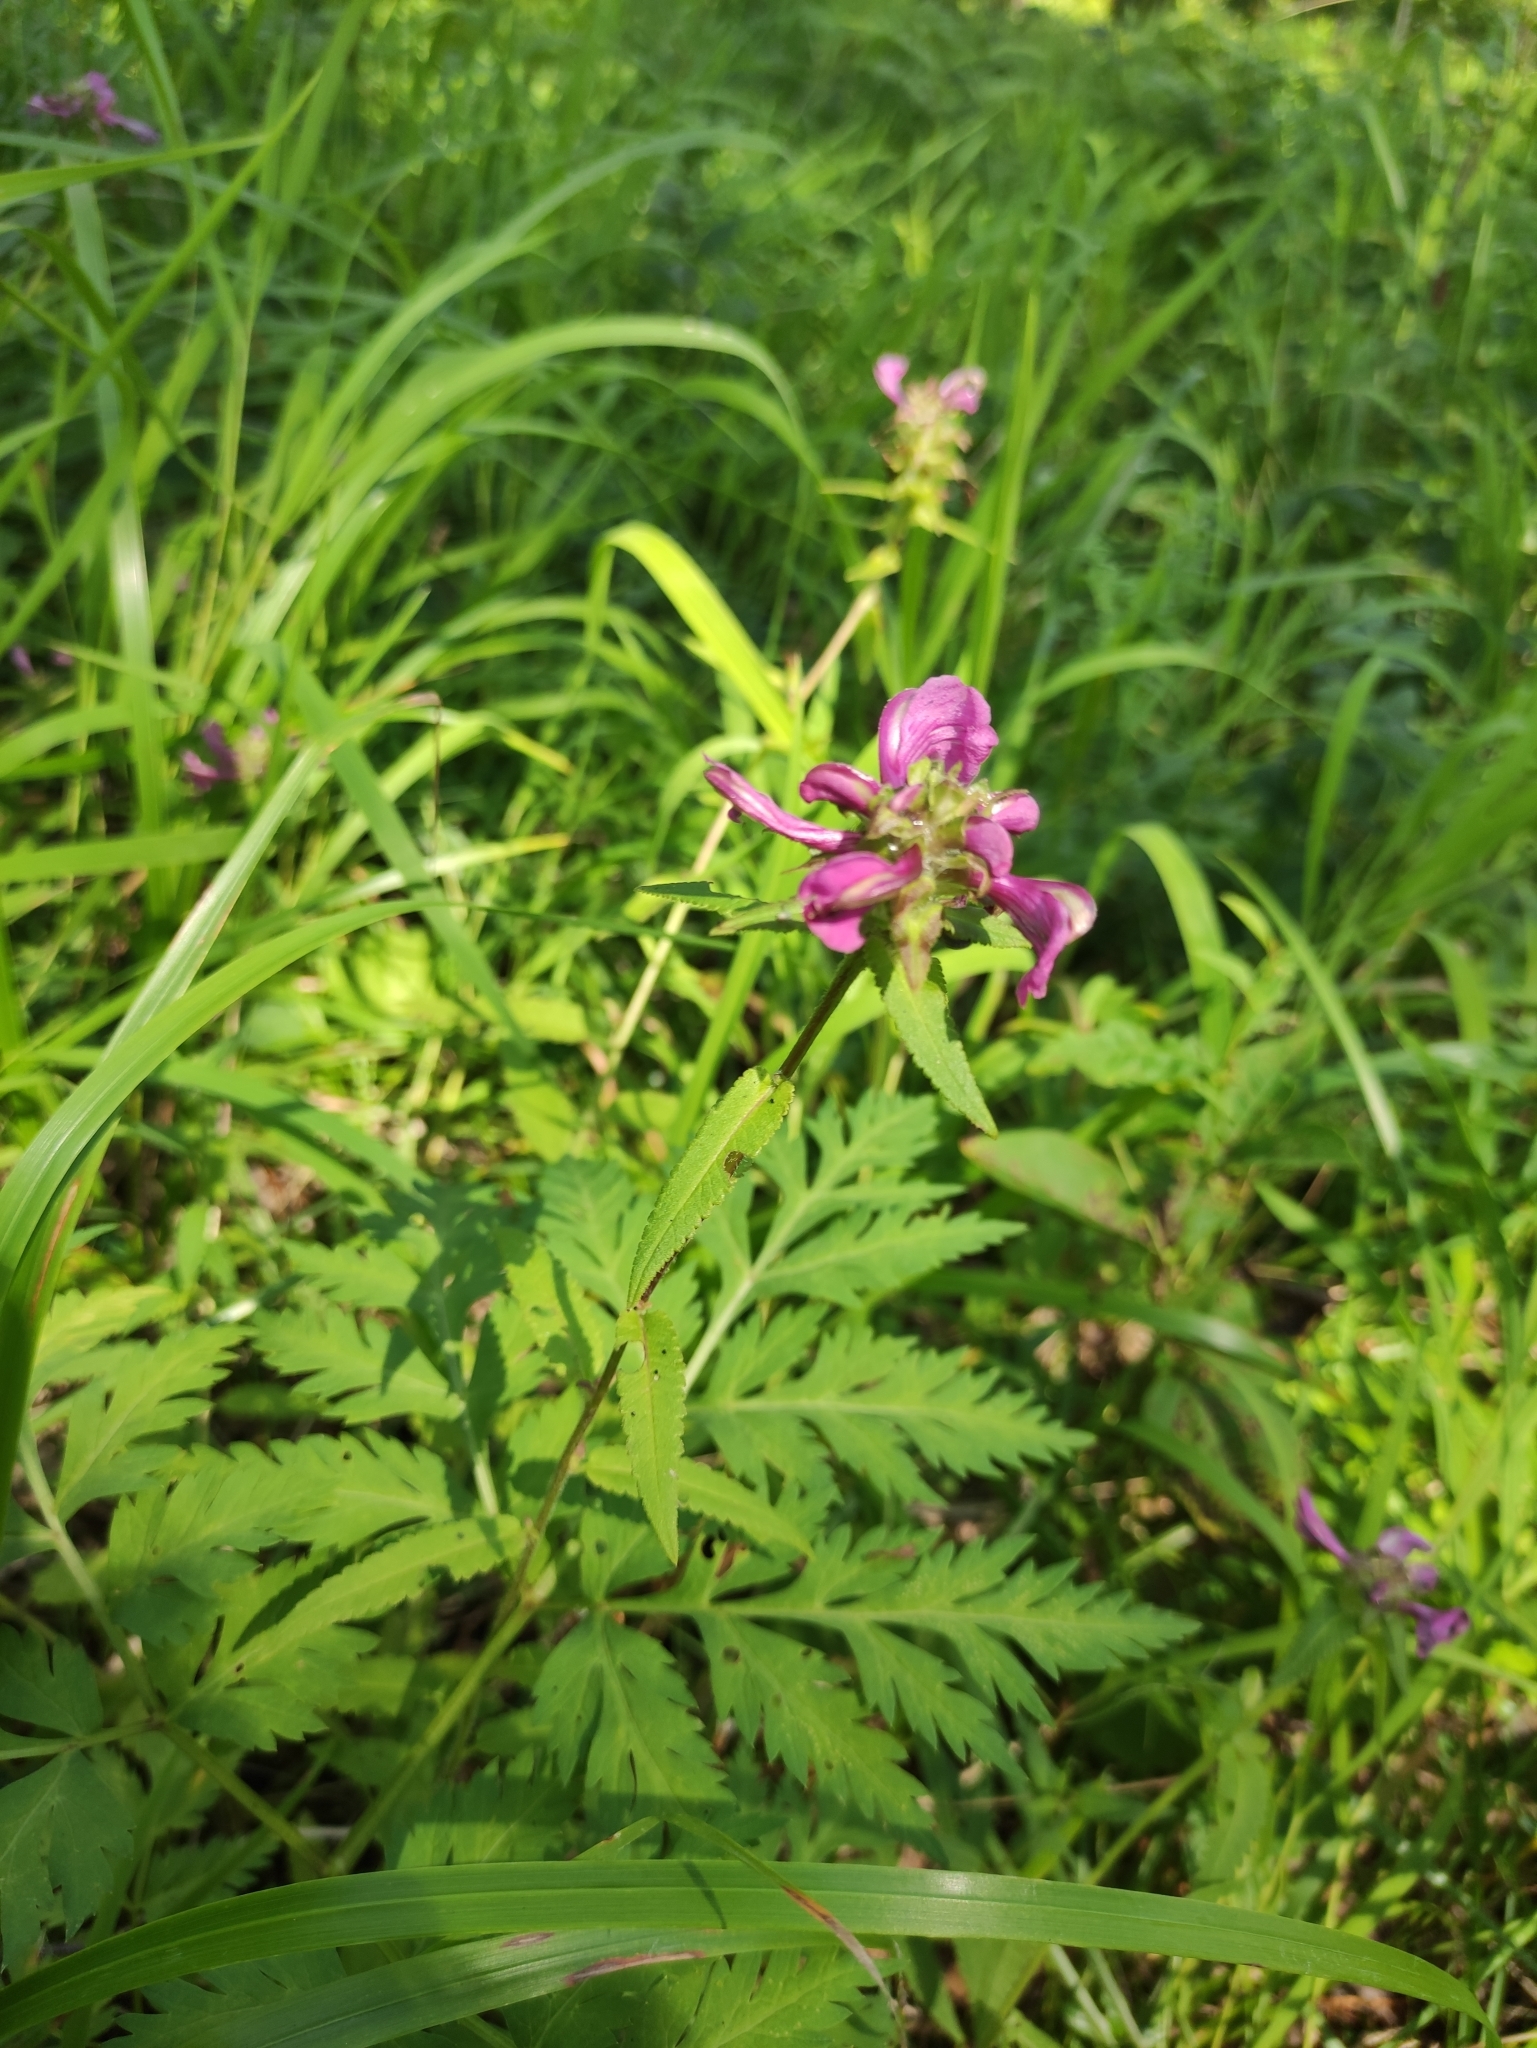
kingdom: Plantae
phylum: Tracheophyta
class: Magnoliopsida
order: Lamiales
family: Orobanchaceae
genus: Pedicularis
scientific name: Pedicularis resupinata
